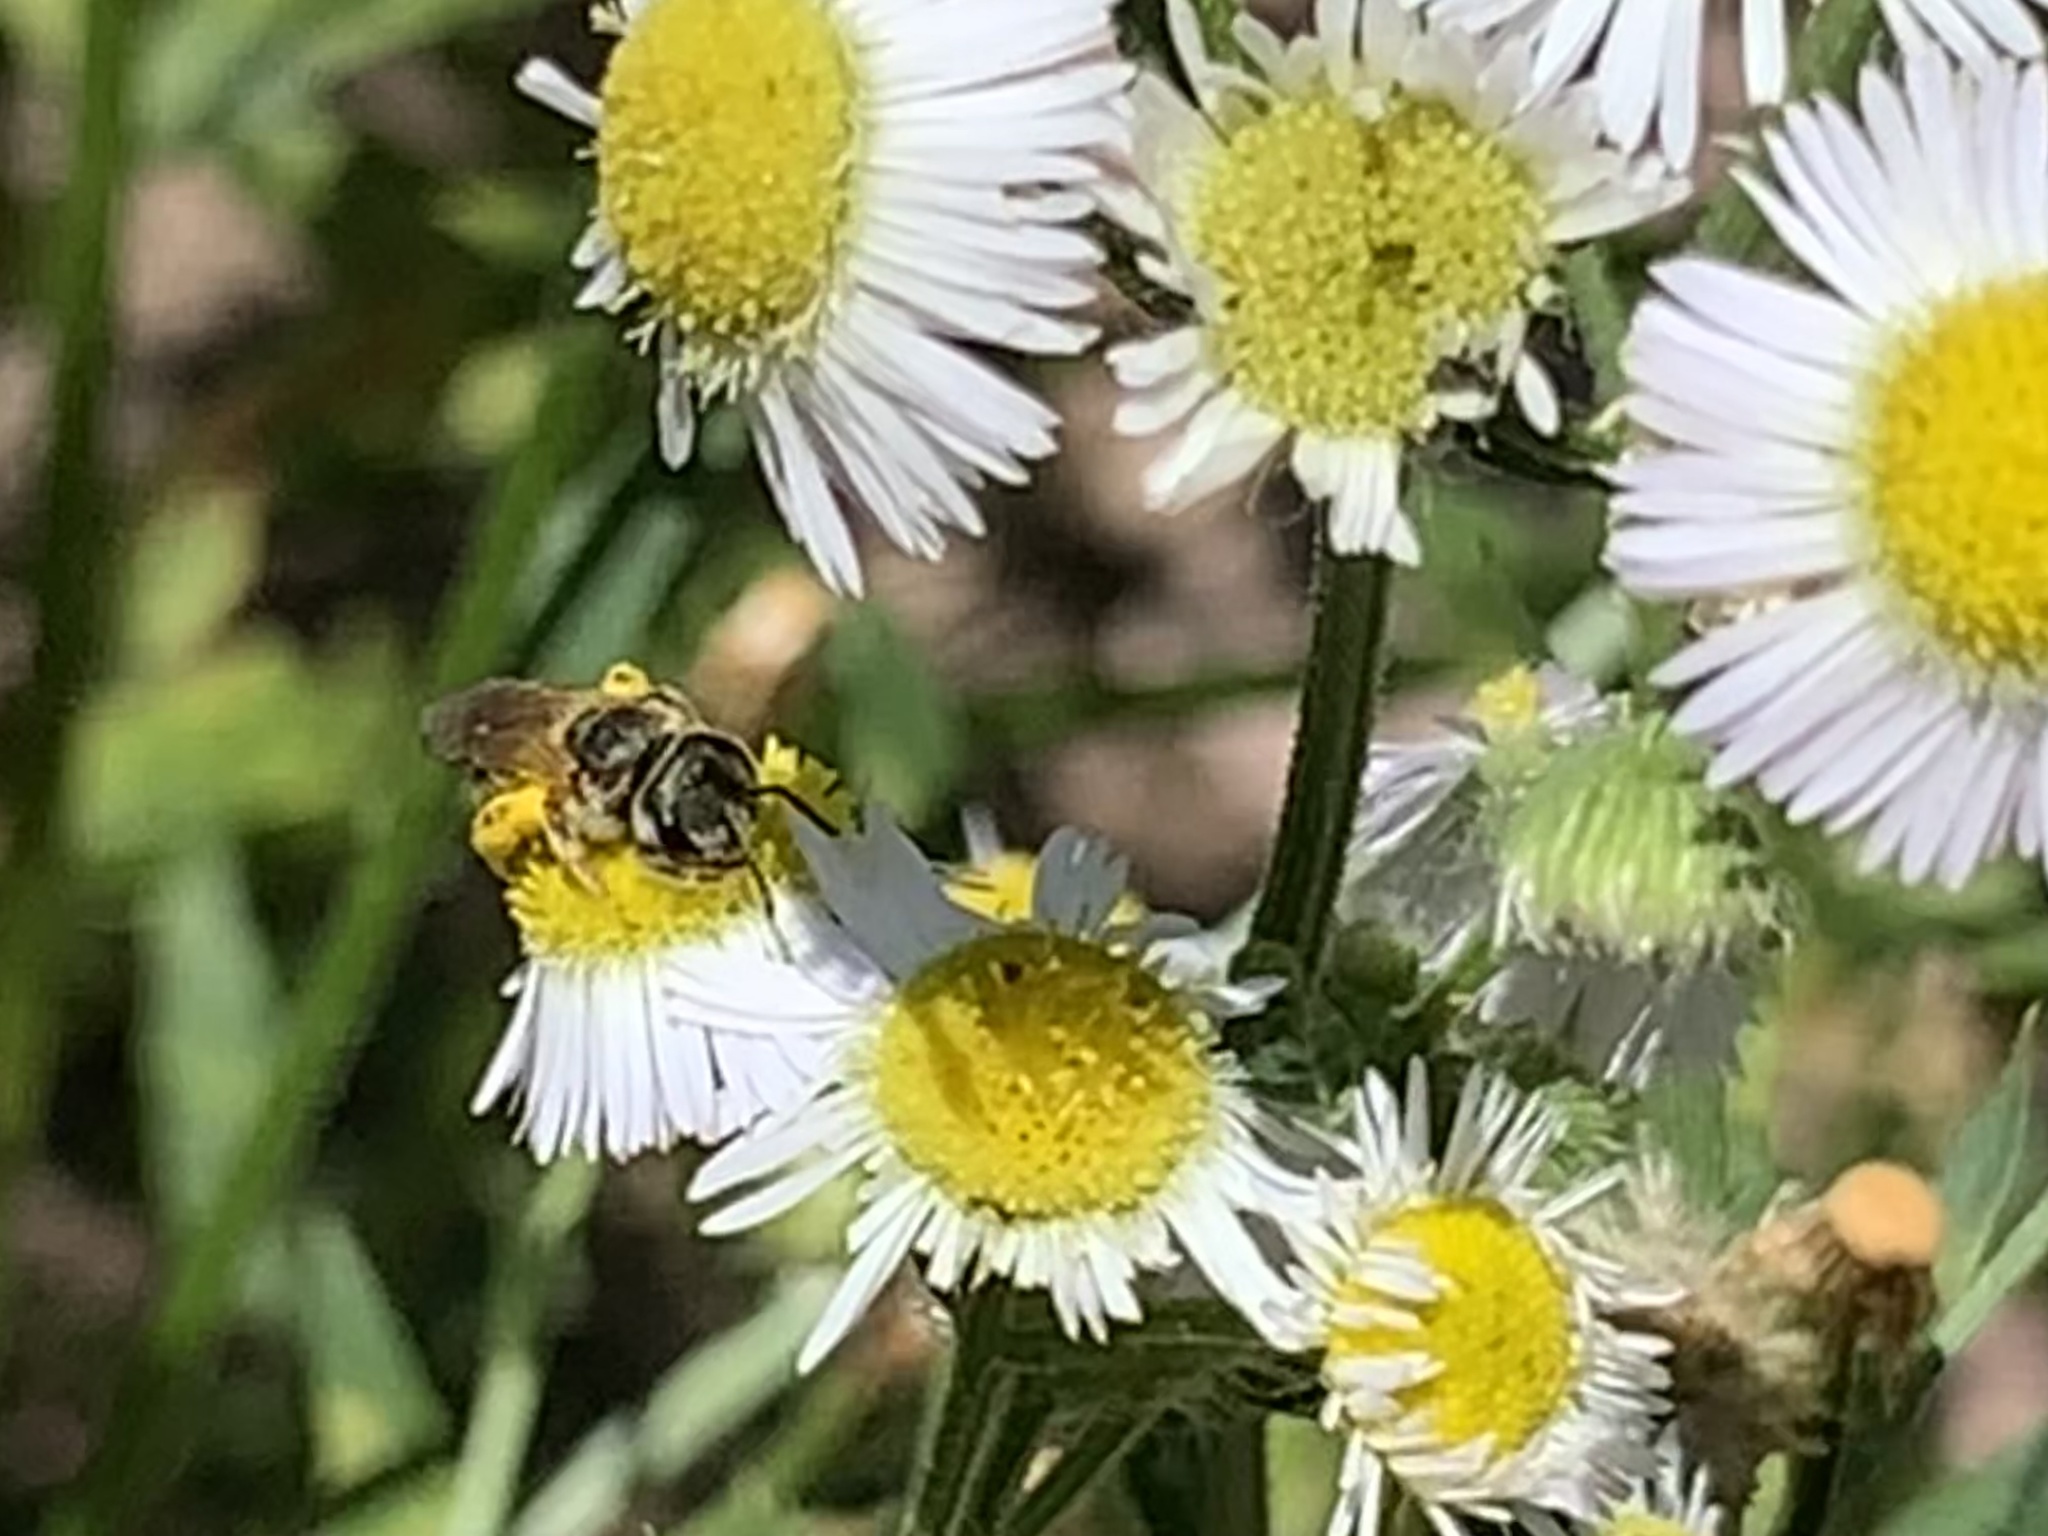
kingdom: Animalia
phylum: Arthropoda
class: Insecta
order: Hymenoptera
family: Halictidae
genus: Halictus
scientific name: Halictus ligatus
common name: Ligated furrow bee
